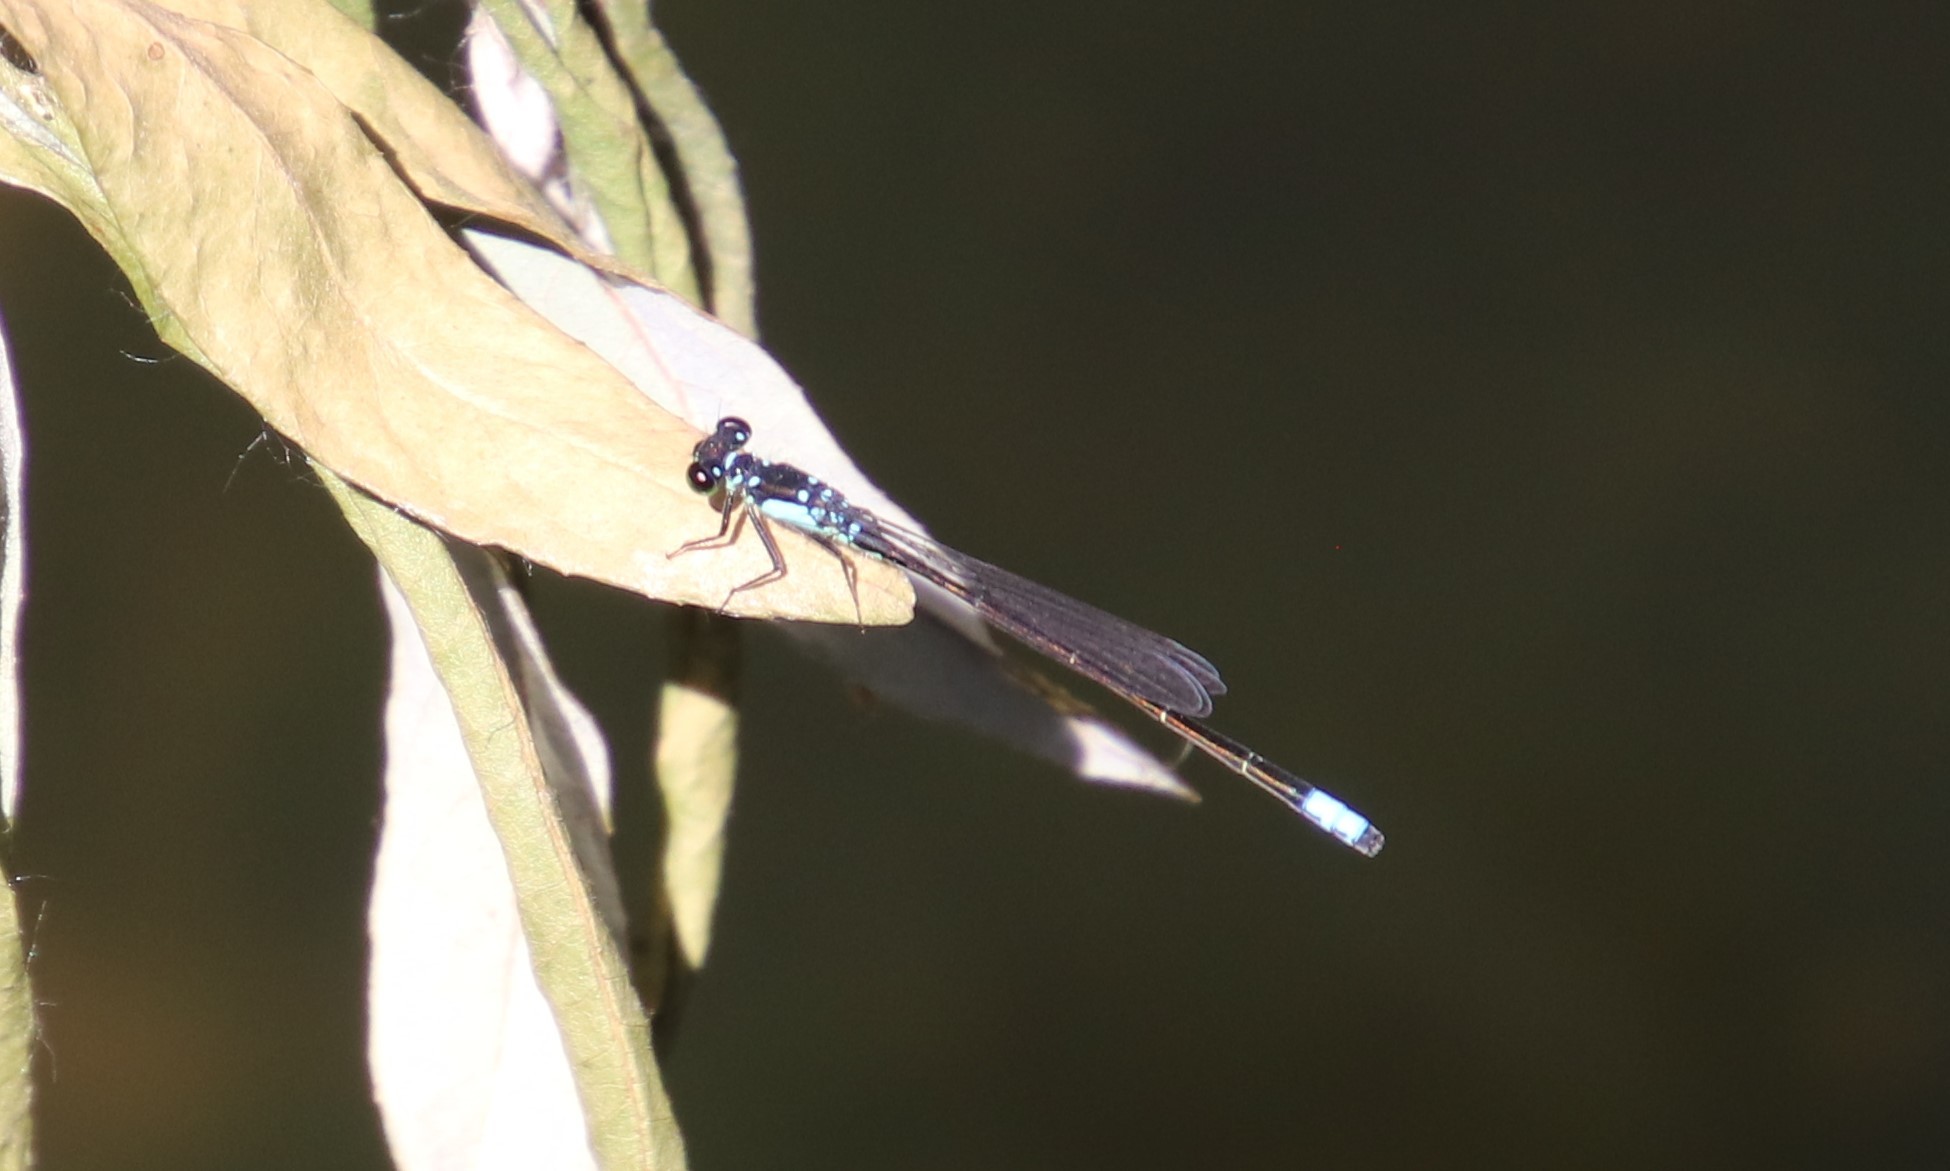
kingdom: Animalia
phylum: Arthropoda
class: Insecta
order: Odonata
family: Coenagrionidae
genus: Ischnura
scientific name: Ischnura cervula
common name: Pacific forktail
